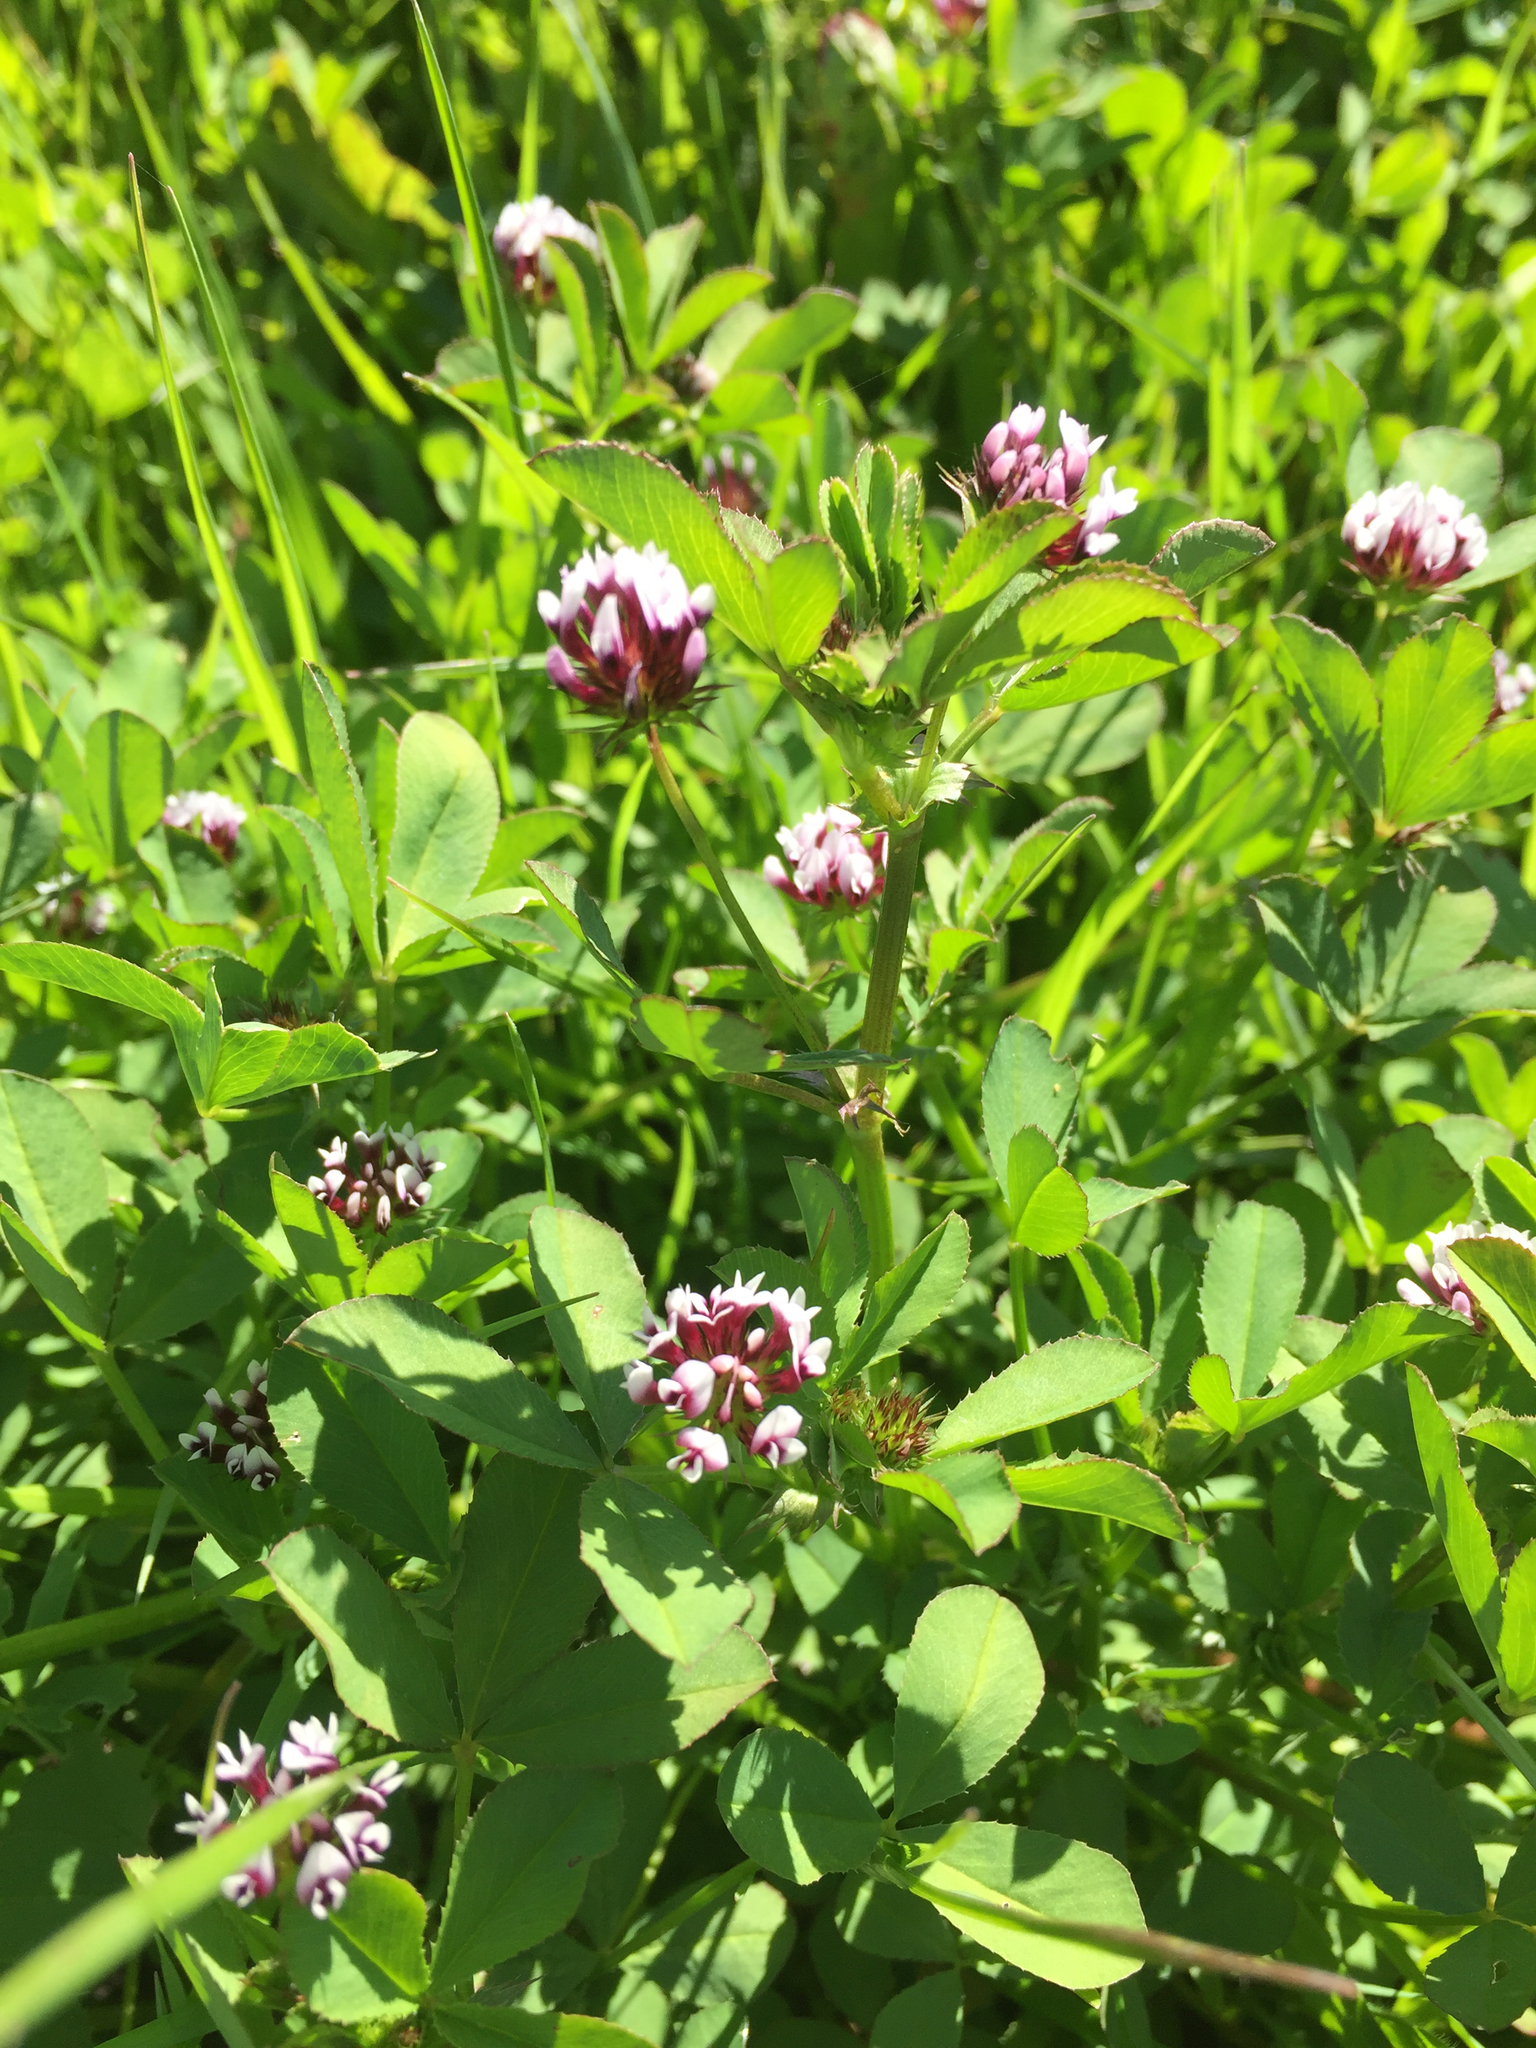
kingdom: Plantae
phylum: Tracheophyta
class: Magnoliopsida
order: Fabales
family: Fabaceae
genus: Trifolium
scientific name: Trifolium variegatum
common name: Whitetip clover
